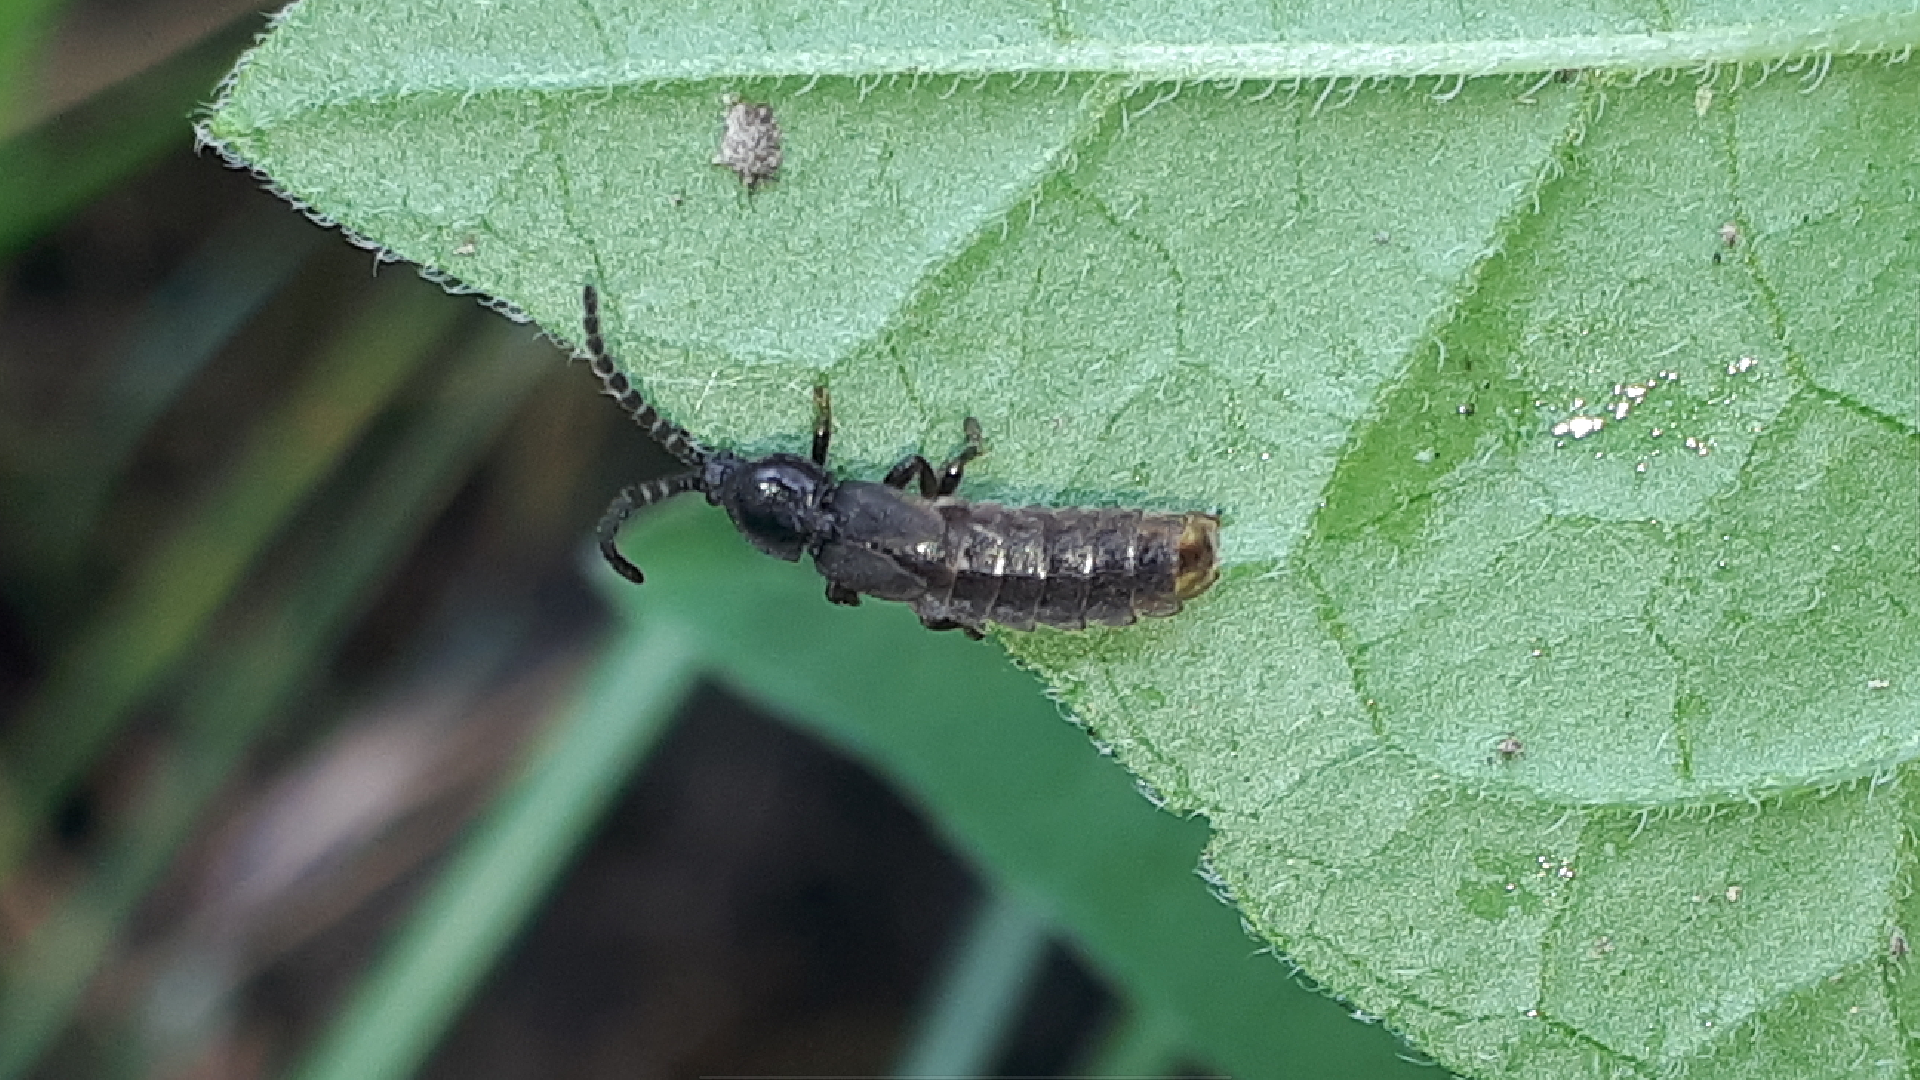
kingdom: Animalia
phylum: Arthropoda
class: Insecta
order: Coleoptera
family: Lampyridae
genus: Phosphaenus
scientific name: Phosphaenus hemipterus
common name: Short-winged firefly
